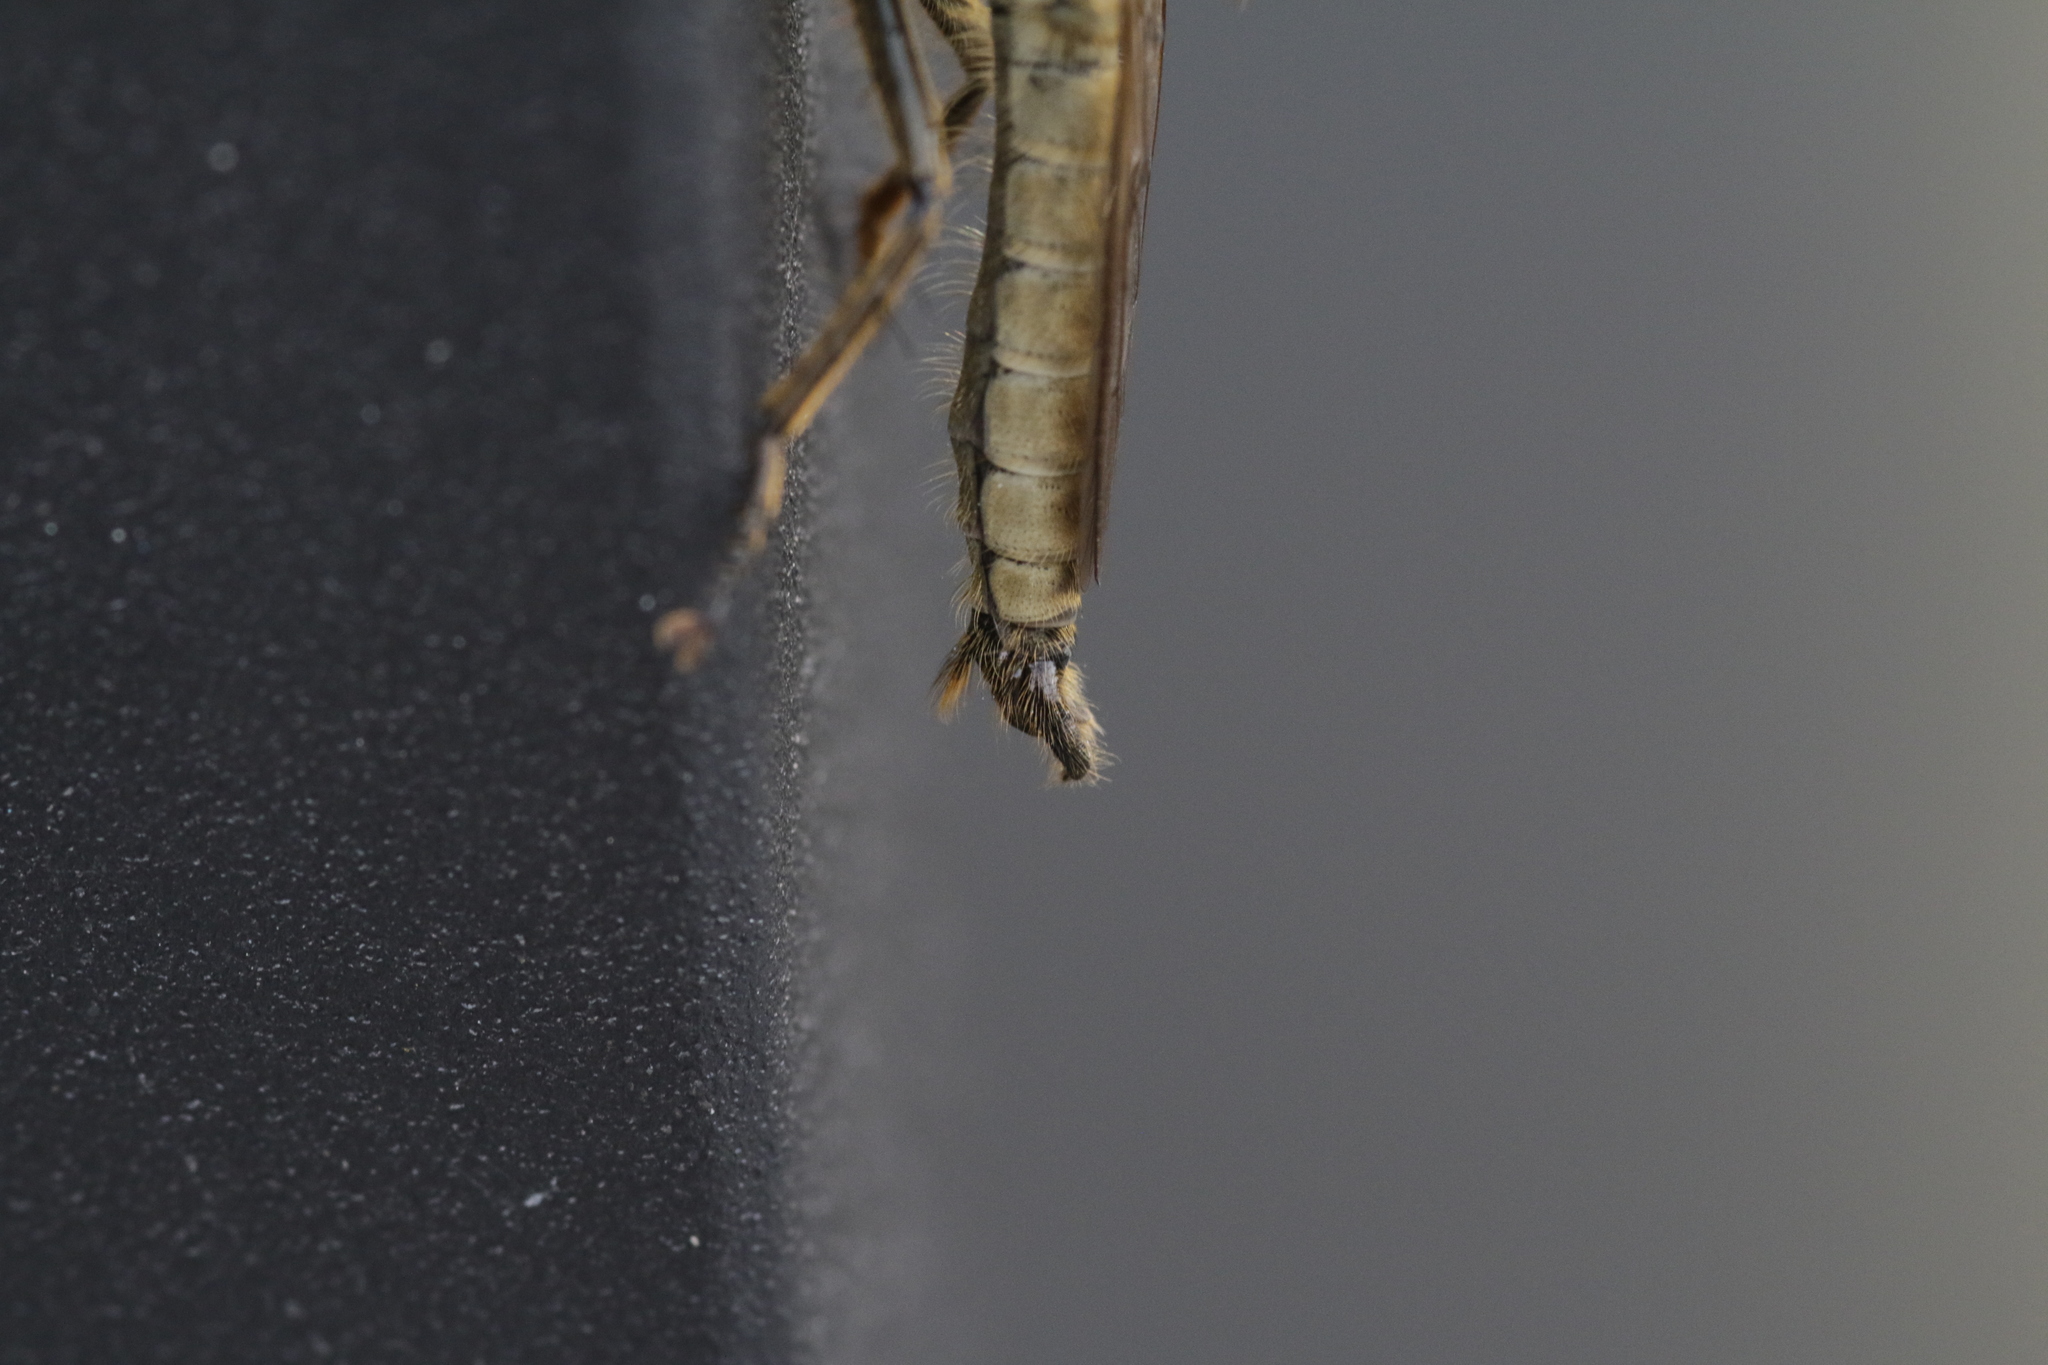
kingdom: Animalia
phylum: Arthropoda
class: Insecta
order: Diptera
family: Asilidae
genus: Eutolmus
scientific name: Eutolmus rufibarbis
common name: Golden-tabbed robberfly
